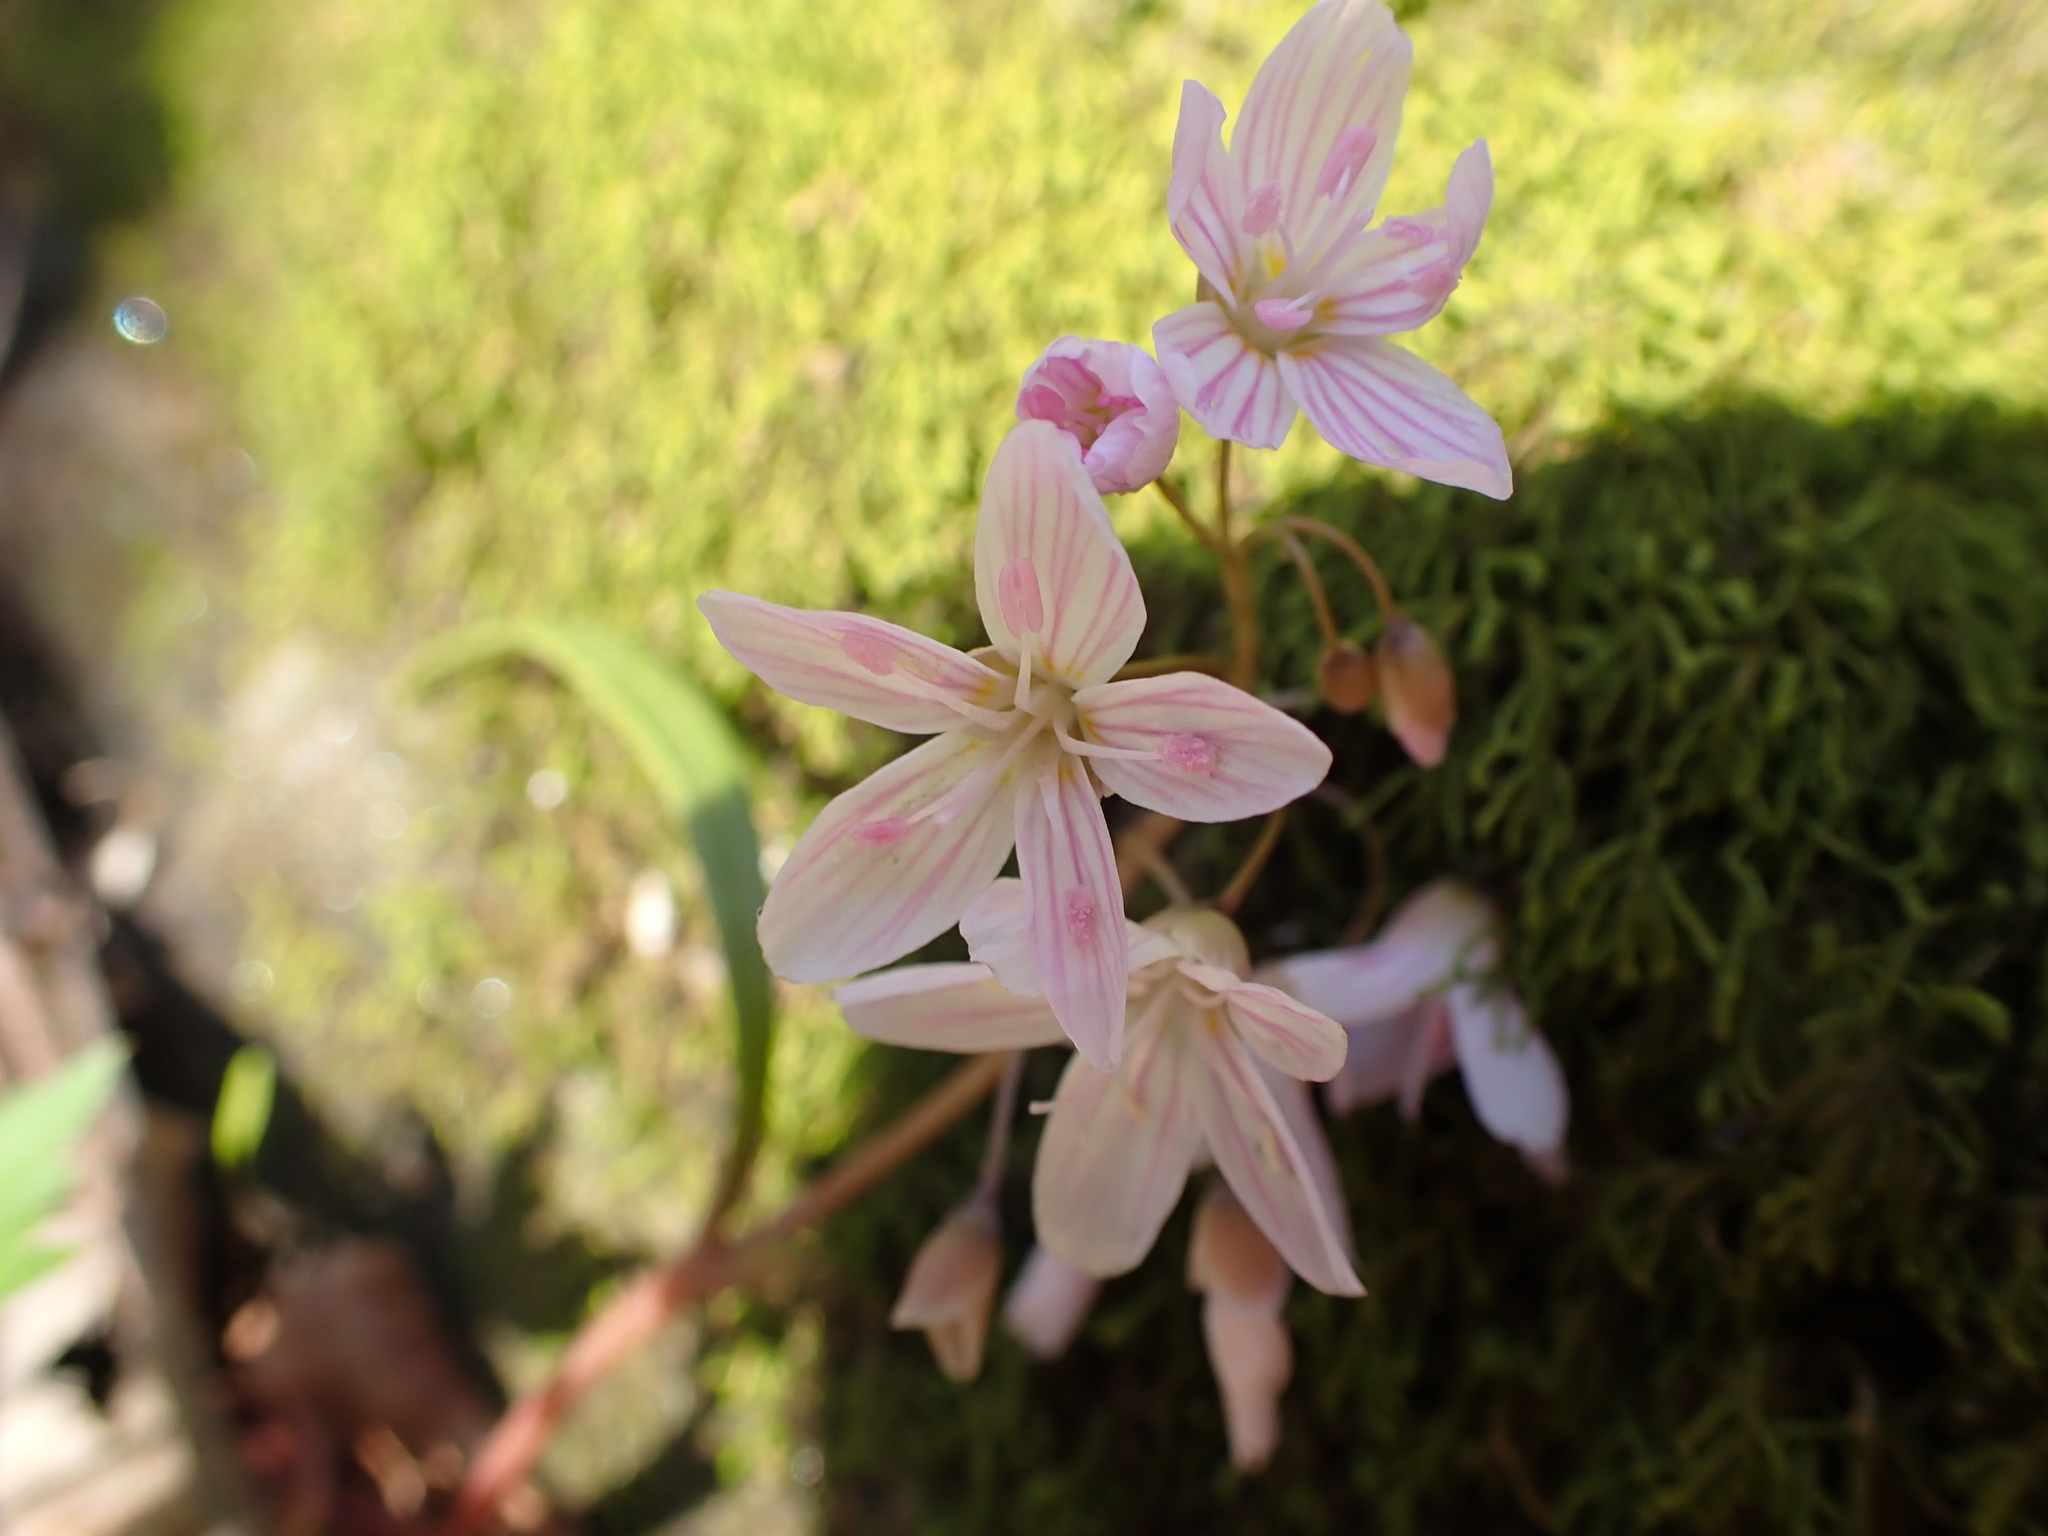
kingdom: Plantae
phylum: Tracheophyta
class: Magnoliopsida
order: Caryophyllales
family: Montiaceae
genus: Claytonia
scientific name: Claytonia virginica
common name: Virginia springbeauty
